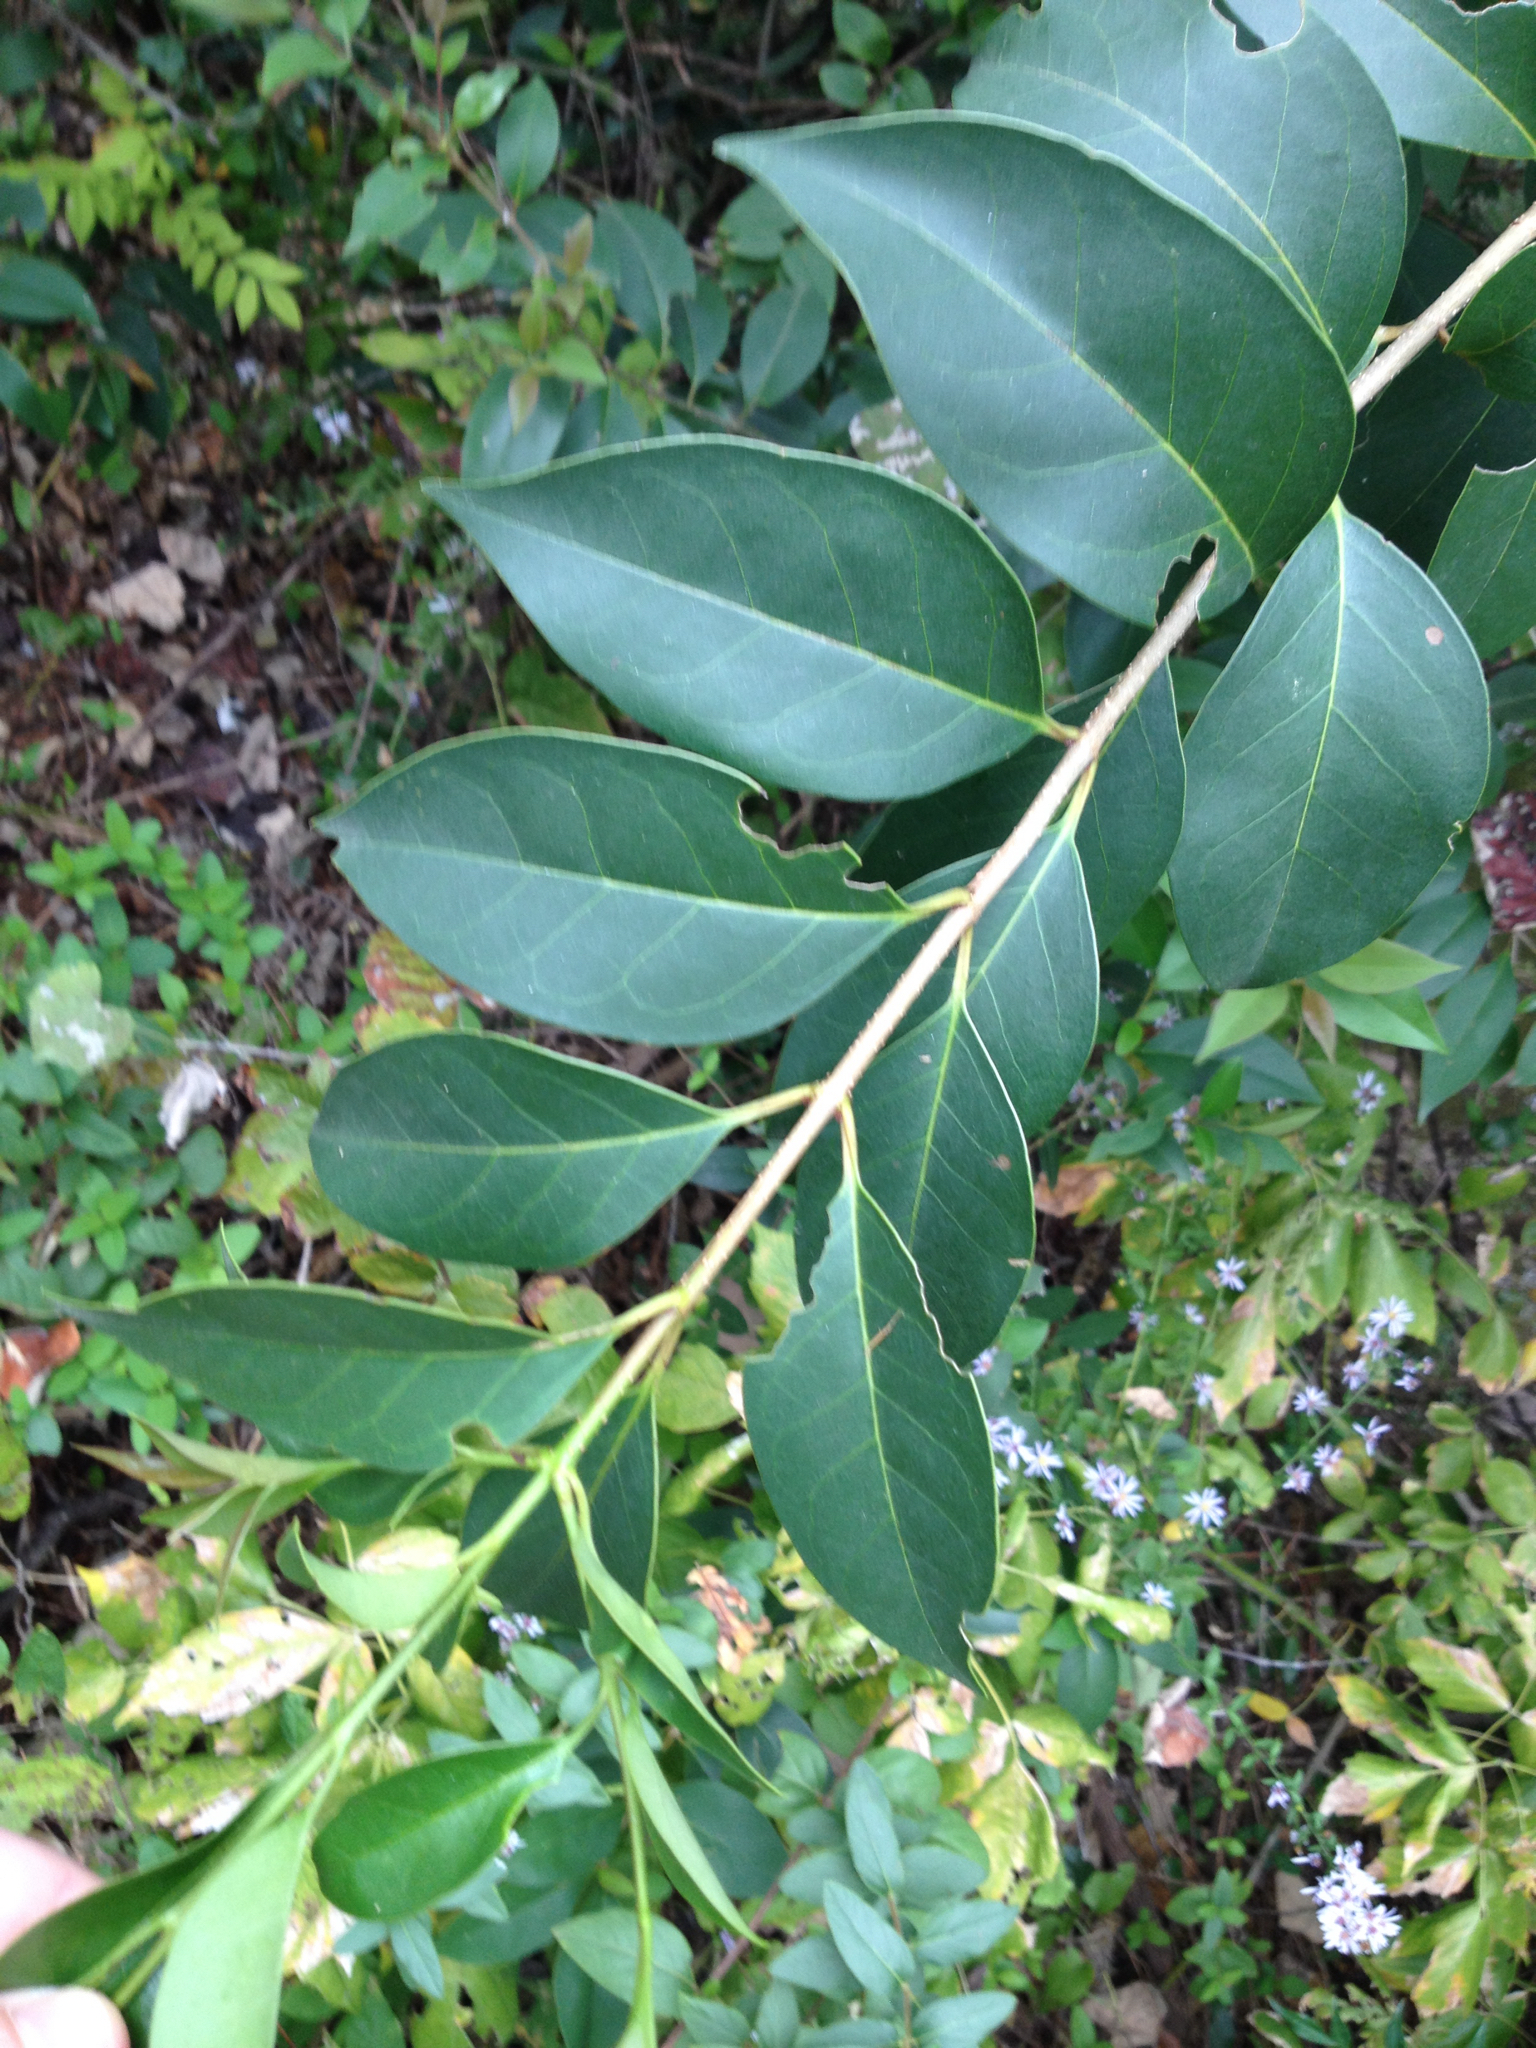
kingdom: Plantae
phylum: Tracheophyta
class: Magnoliopsida
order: Lamiales
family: Oleaceae
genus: Ligustrum
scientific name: Ligustrum lucidum
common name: Glossy privet
